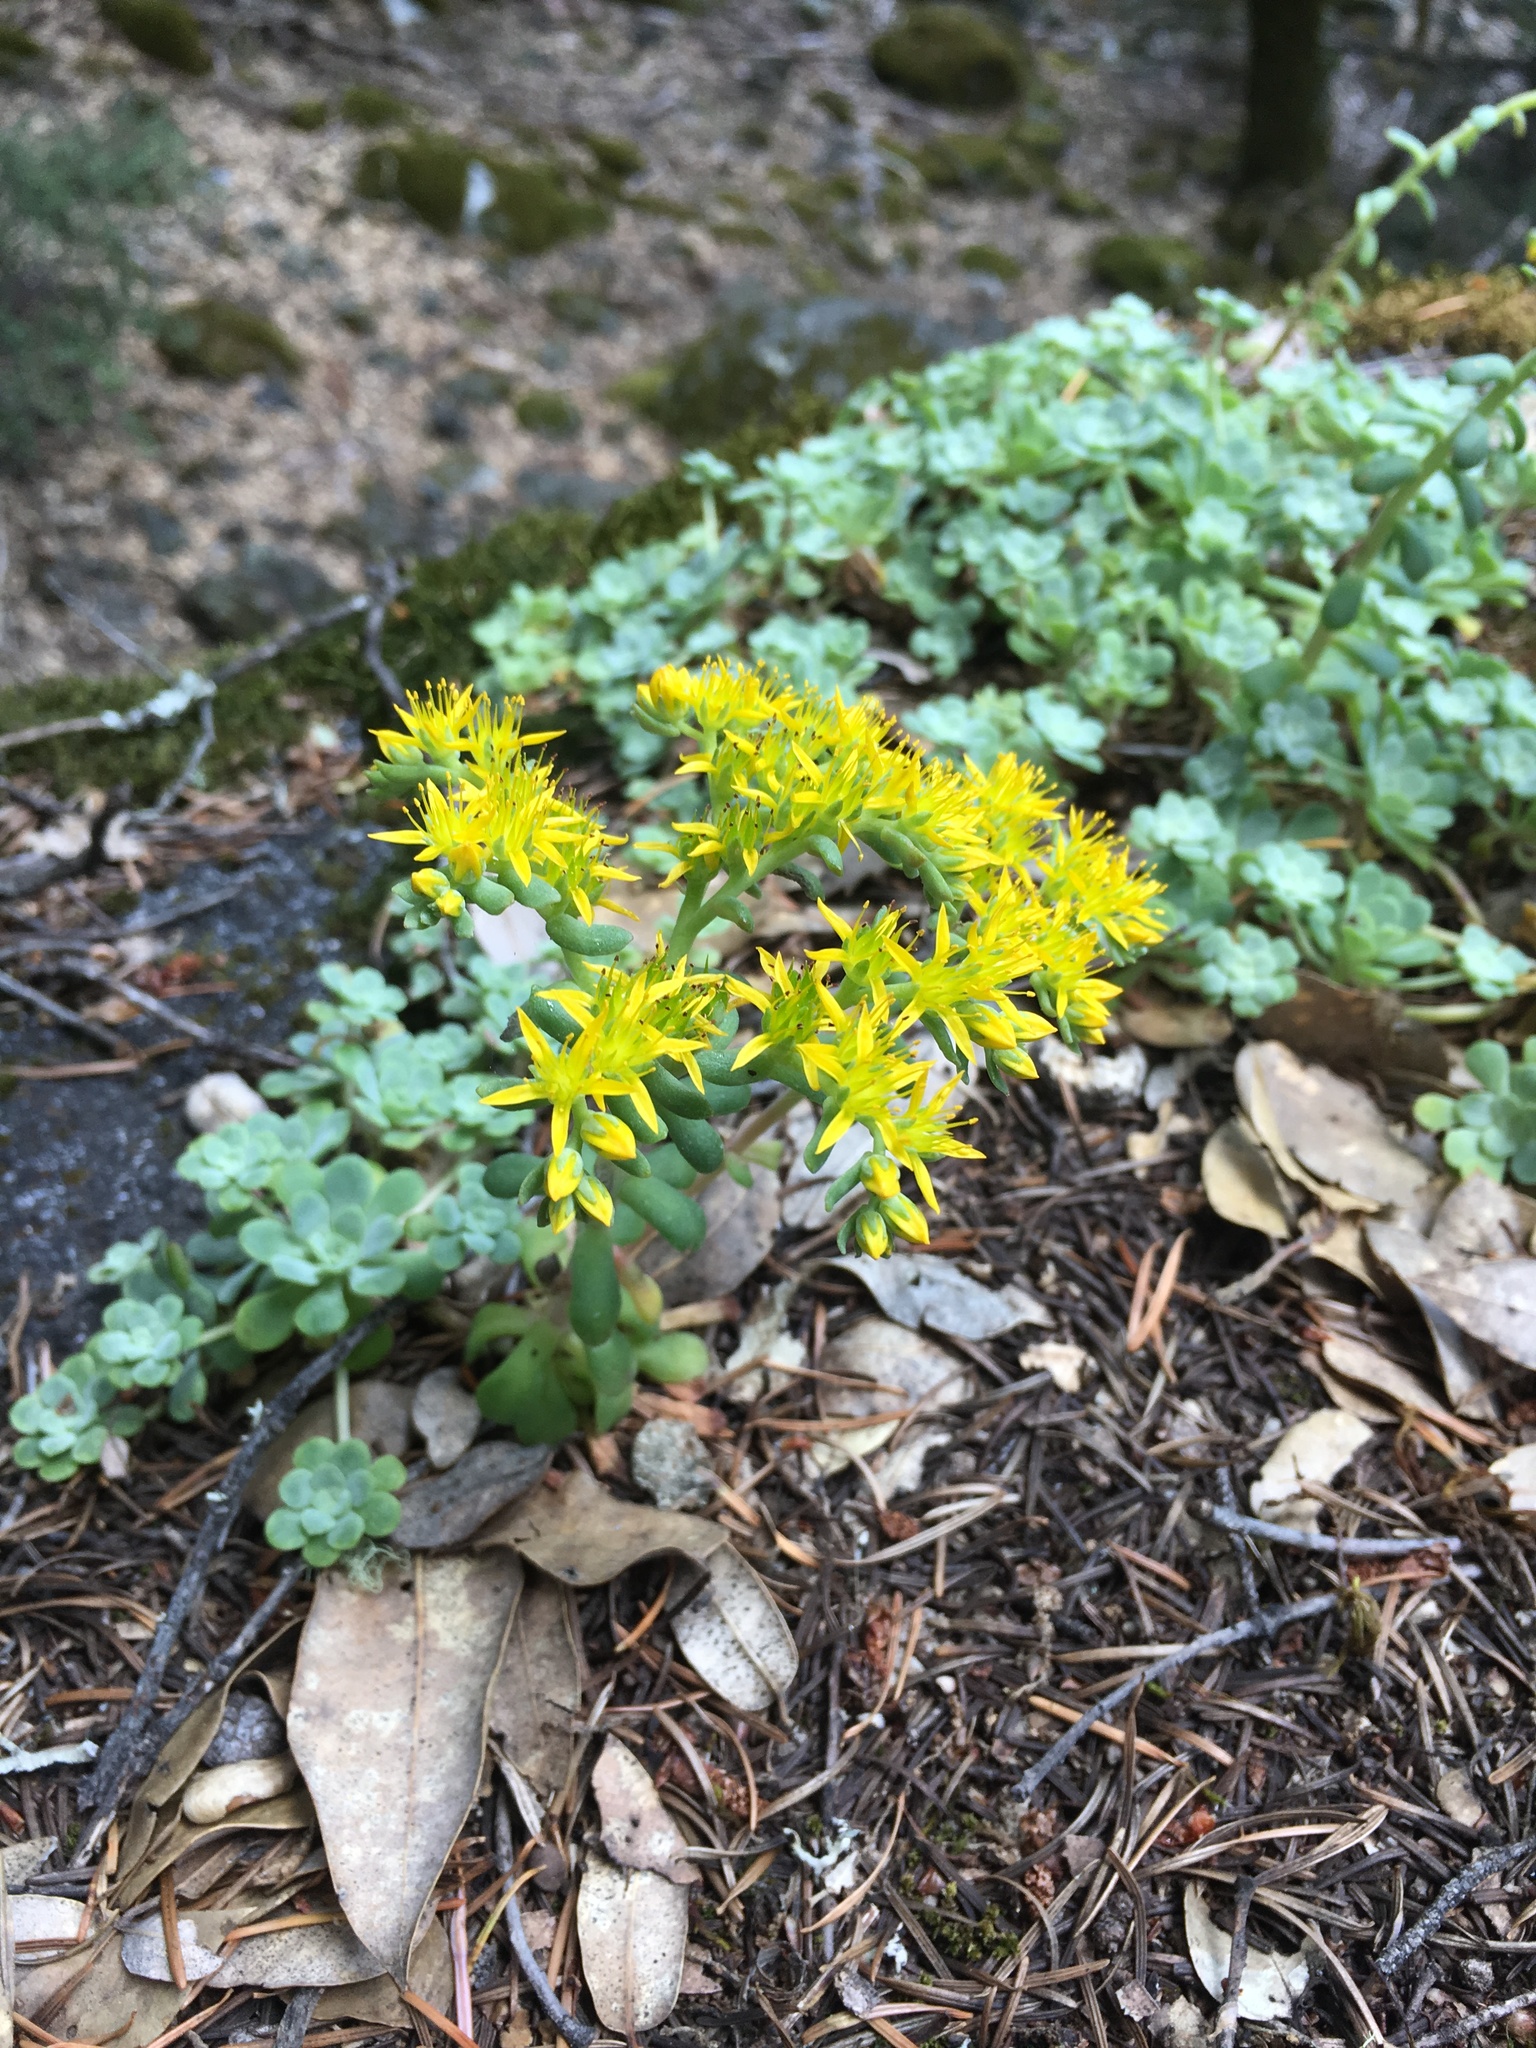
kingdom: Plantae
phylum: Tracheophyta
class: Magnoliopsida
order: Saxifragales
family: Crassulaceae
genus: Sedum
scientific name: Sedum spathulifolium
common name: Colorado stonecrop
